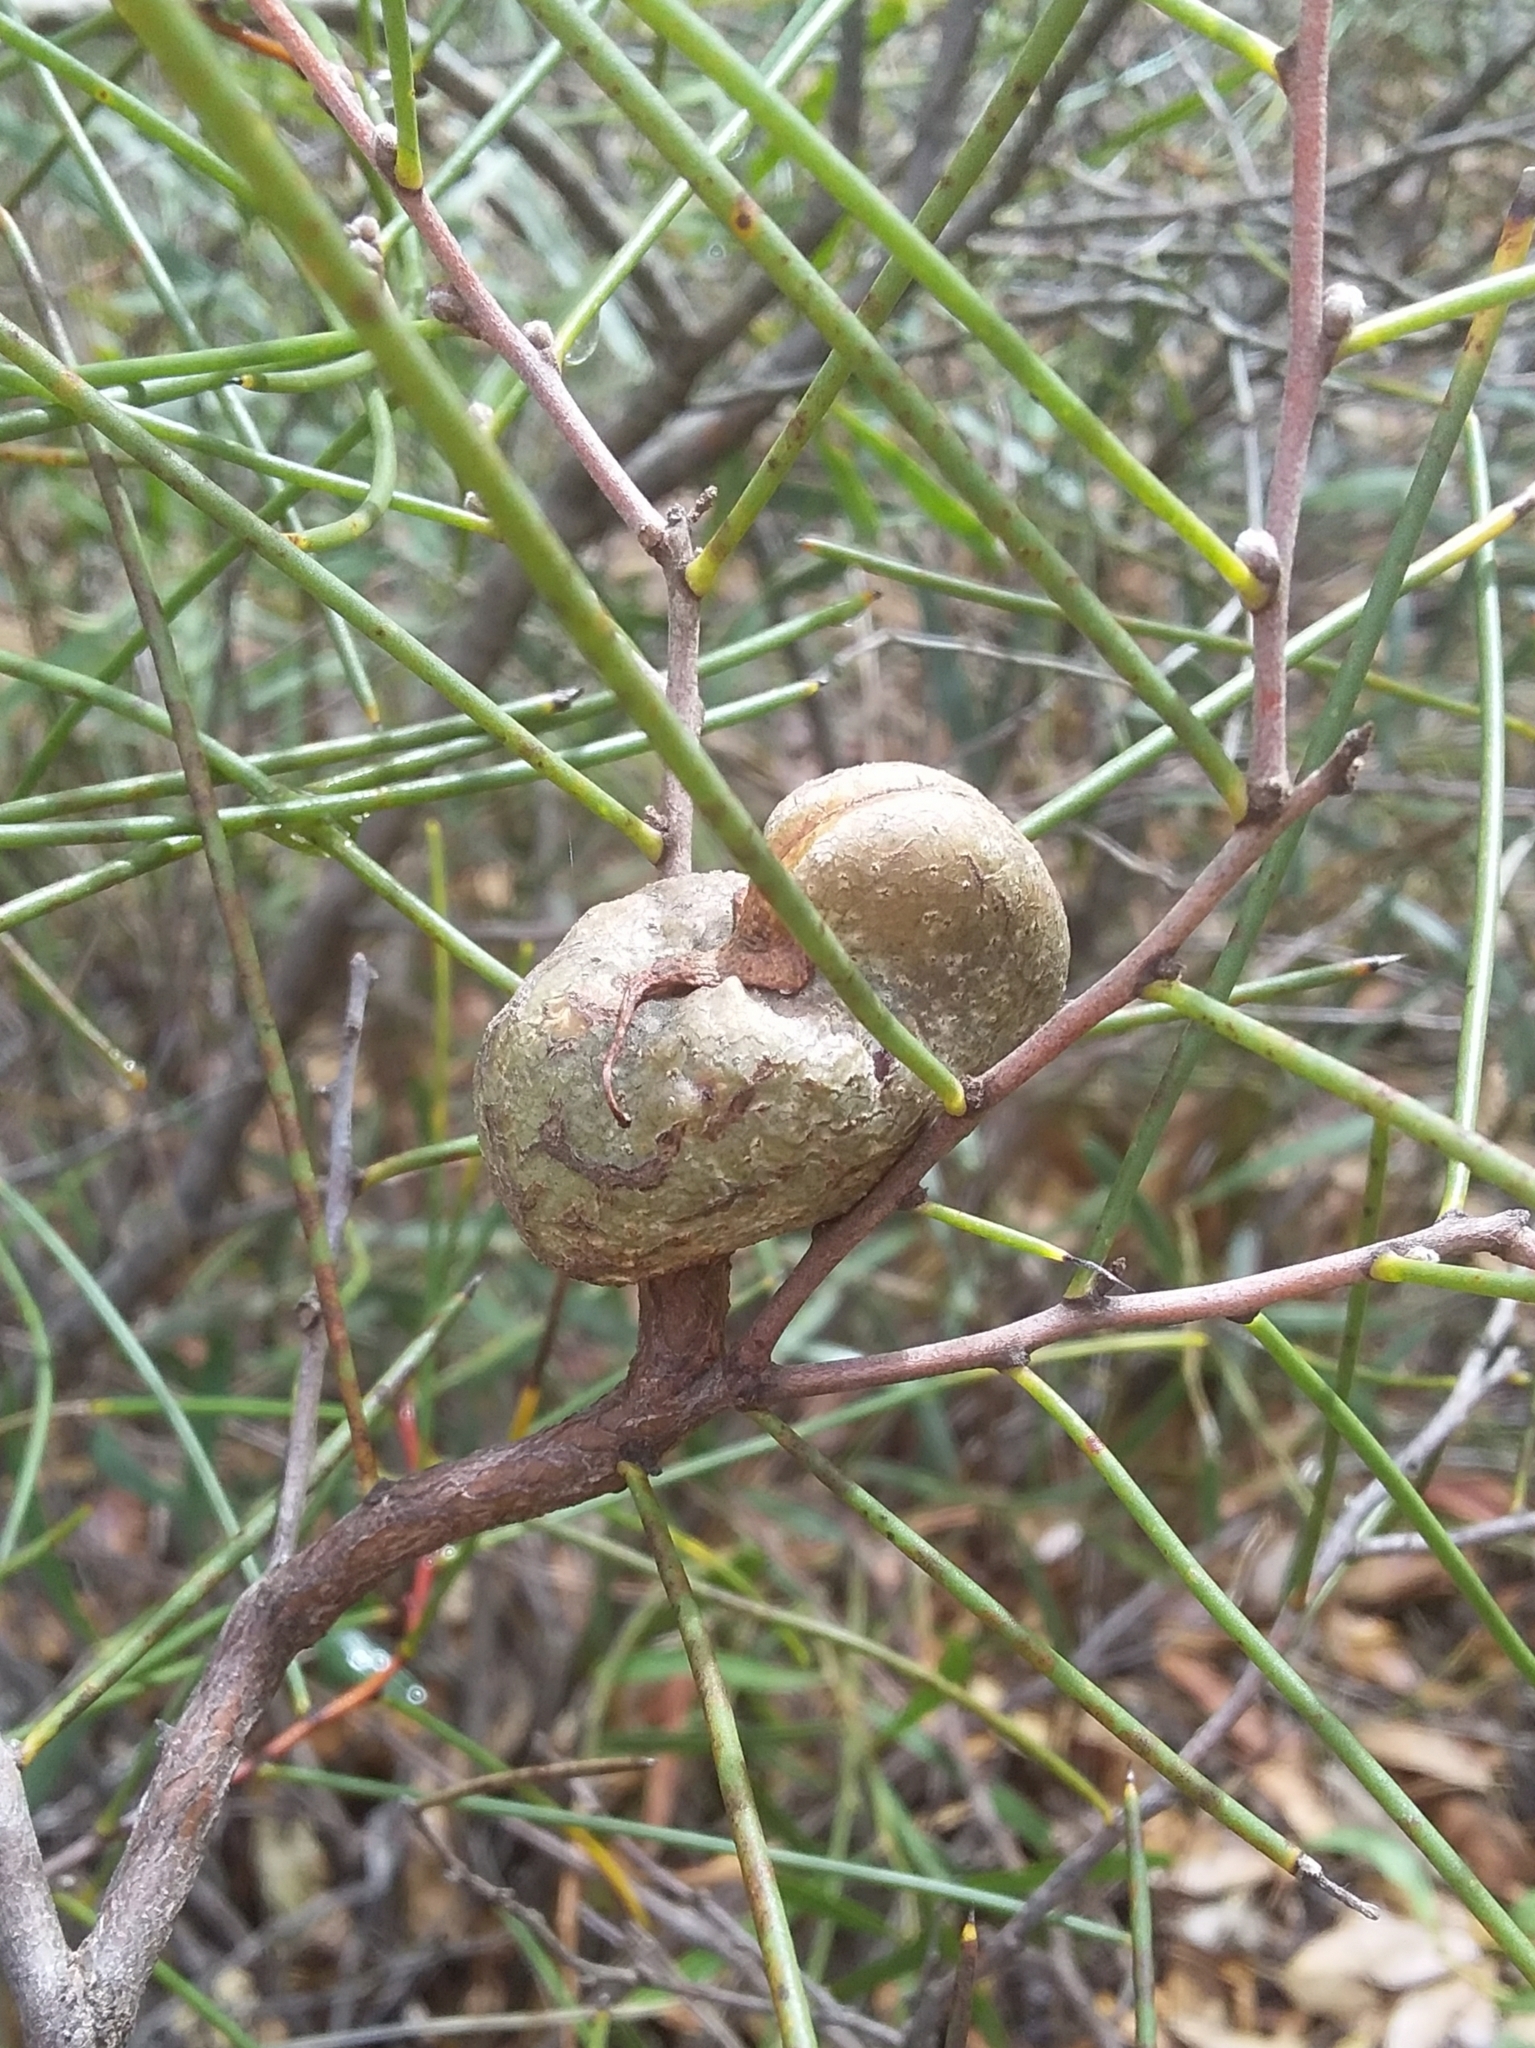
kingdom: Plantae
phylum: Tracheophyta
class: Magnoliopsida
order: Proteales
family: Proteaceae
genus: Hakea
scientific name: Hakea rostrata
